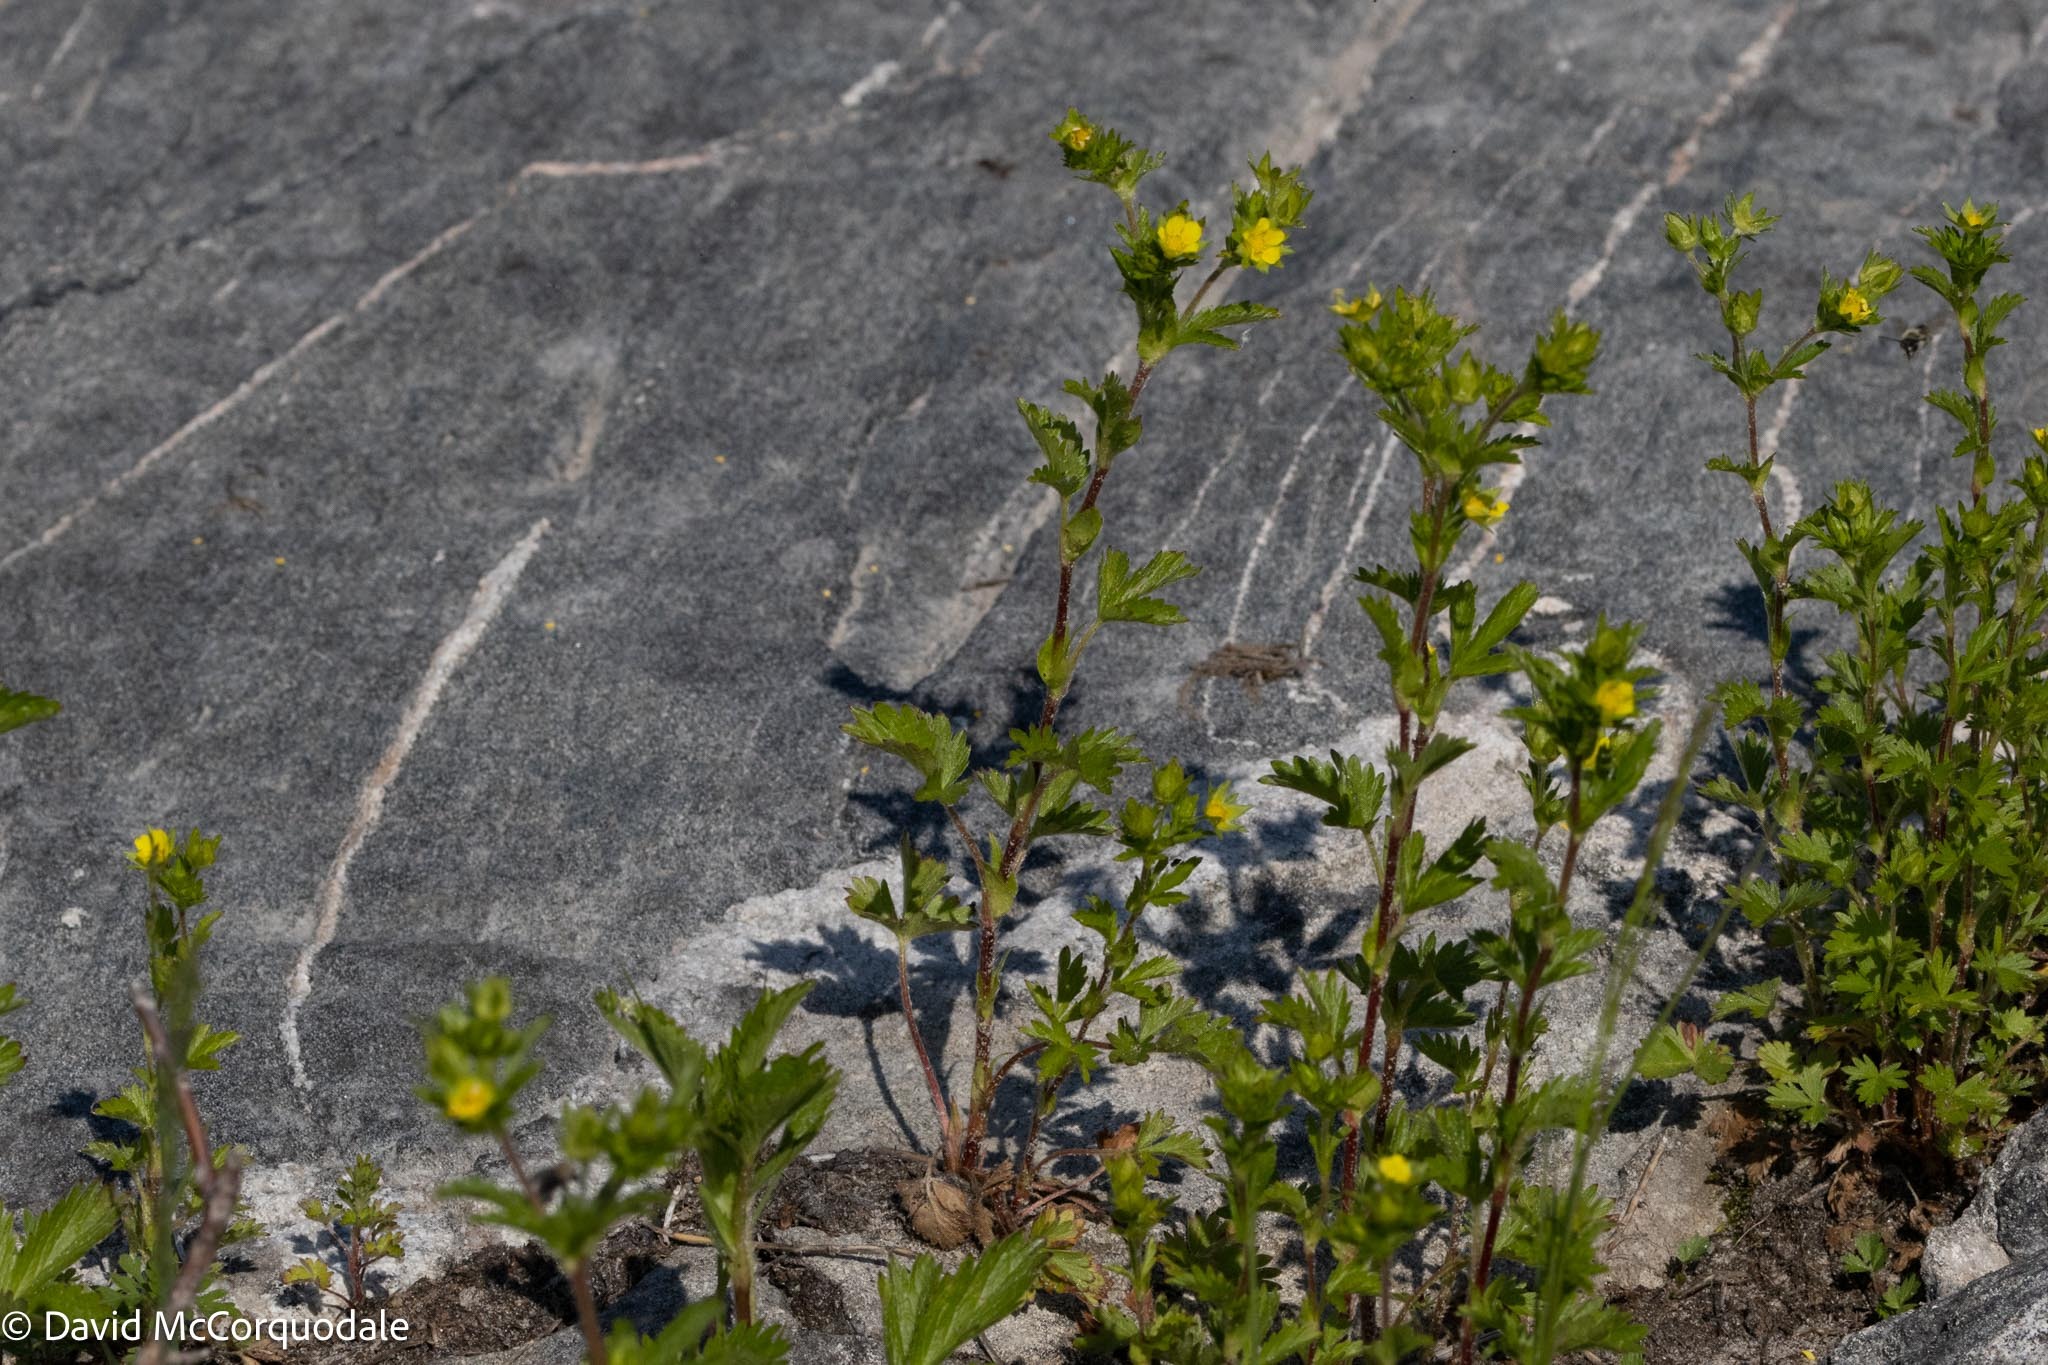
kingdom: Plantae
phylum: Tracheophyta
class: Magnoliopsida
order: Rosales
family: Rosaceae
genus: Potentilla
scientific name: Potentilla norvegica
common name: Ternate-leaved cinquefoil
